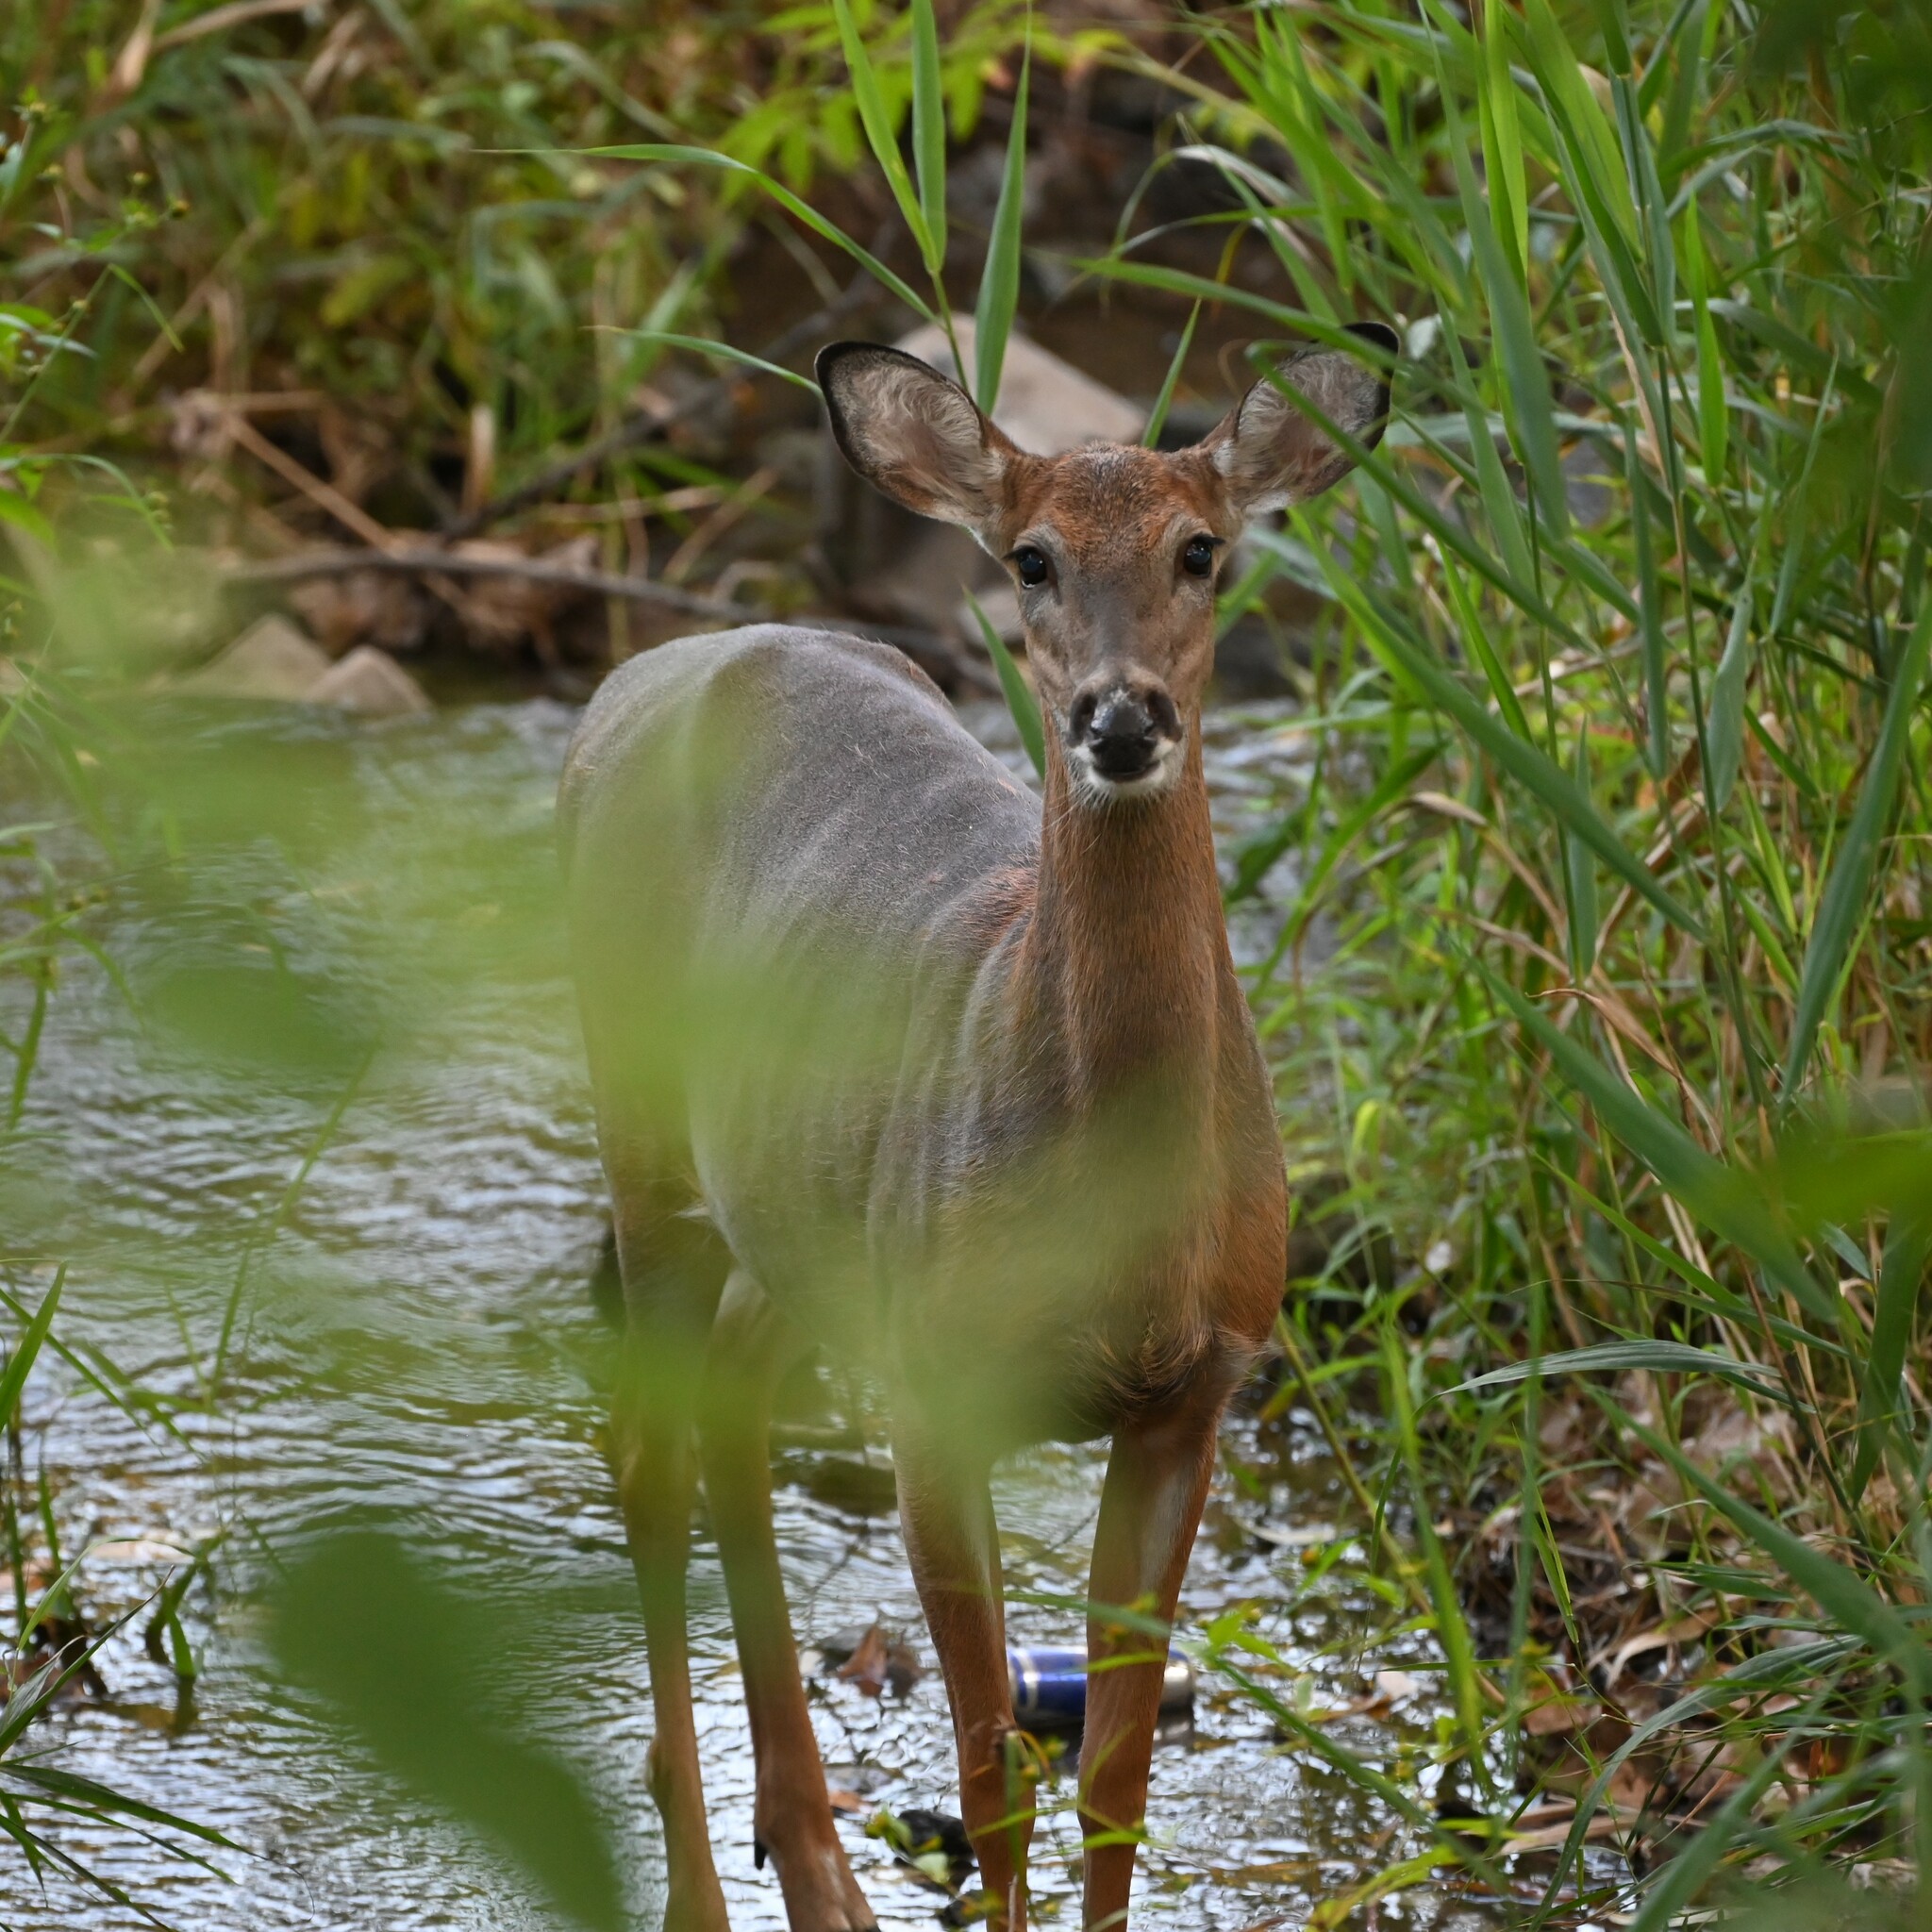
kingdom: Animalia
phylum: Chordata
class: Mammalia
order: Artiodactyla
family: Cervidae
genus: Odocoileus
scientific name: Odocoileus virginianus
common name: White-tailed deer
